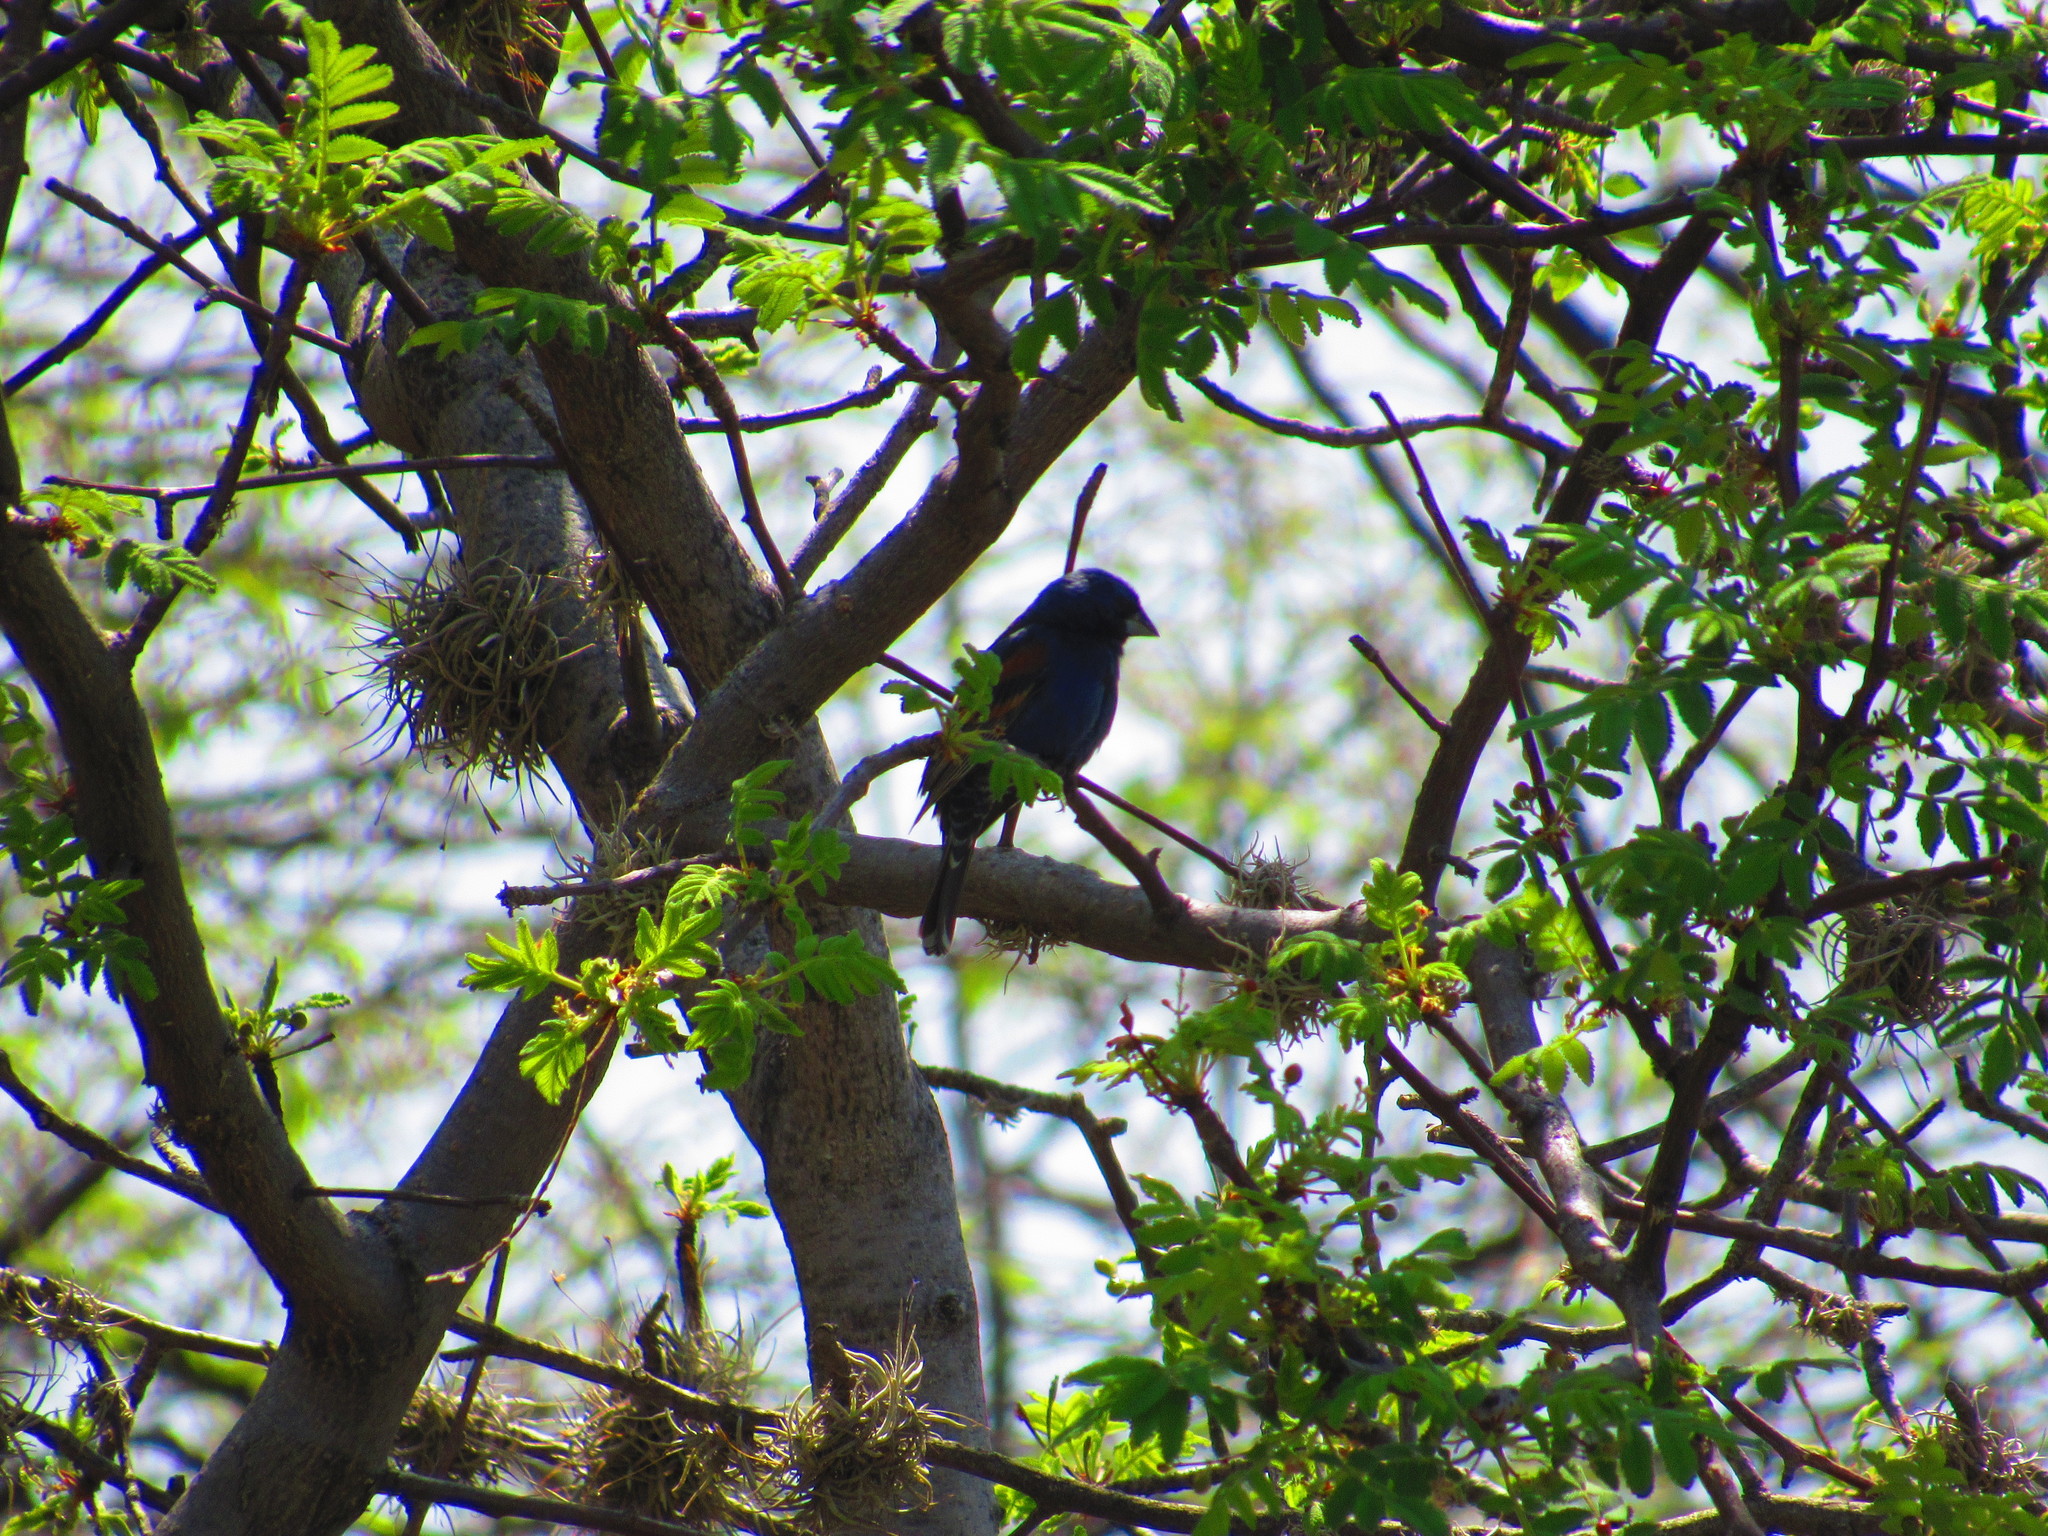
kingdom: Animalia
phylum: Chordata
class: Aves
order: Passeriformes
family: Cardinalidae
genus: Passerina
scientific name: Passerina caerulea
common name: Blue grosbeak
